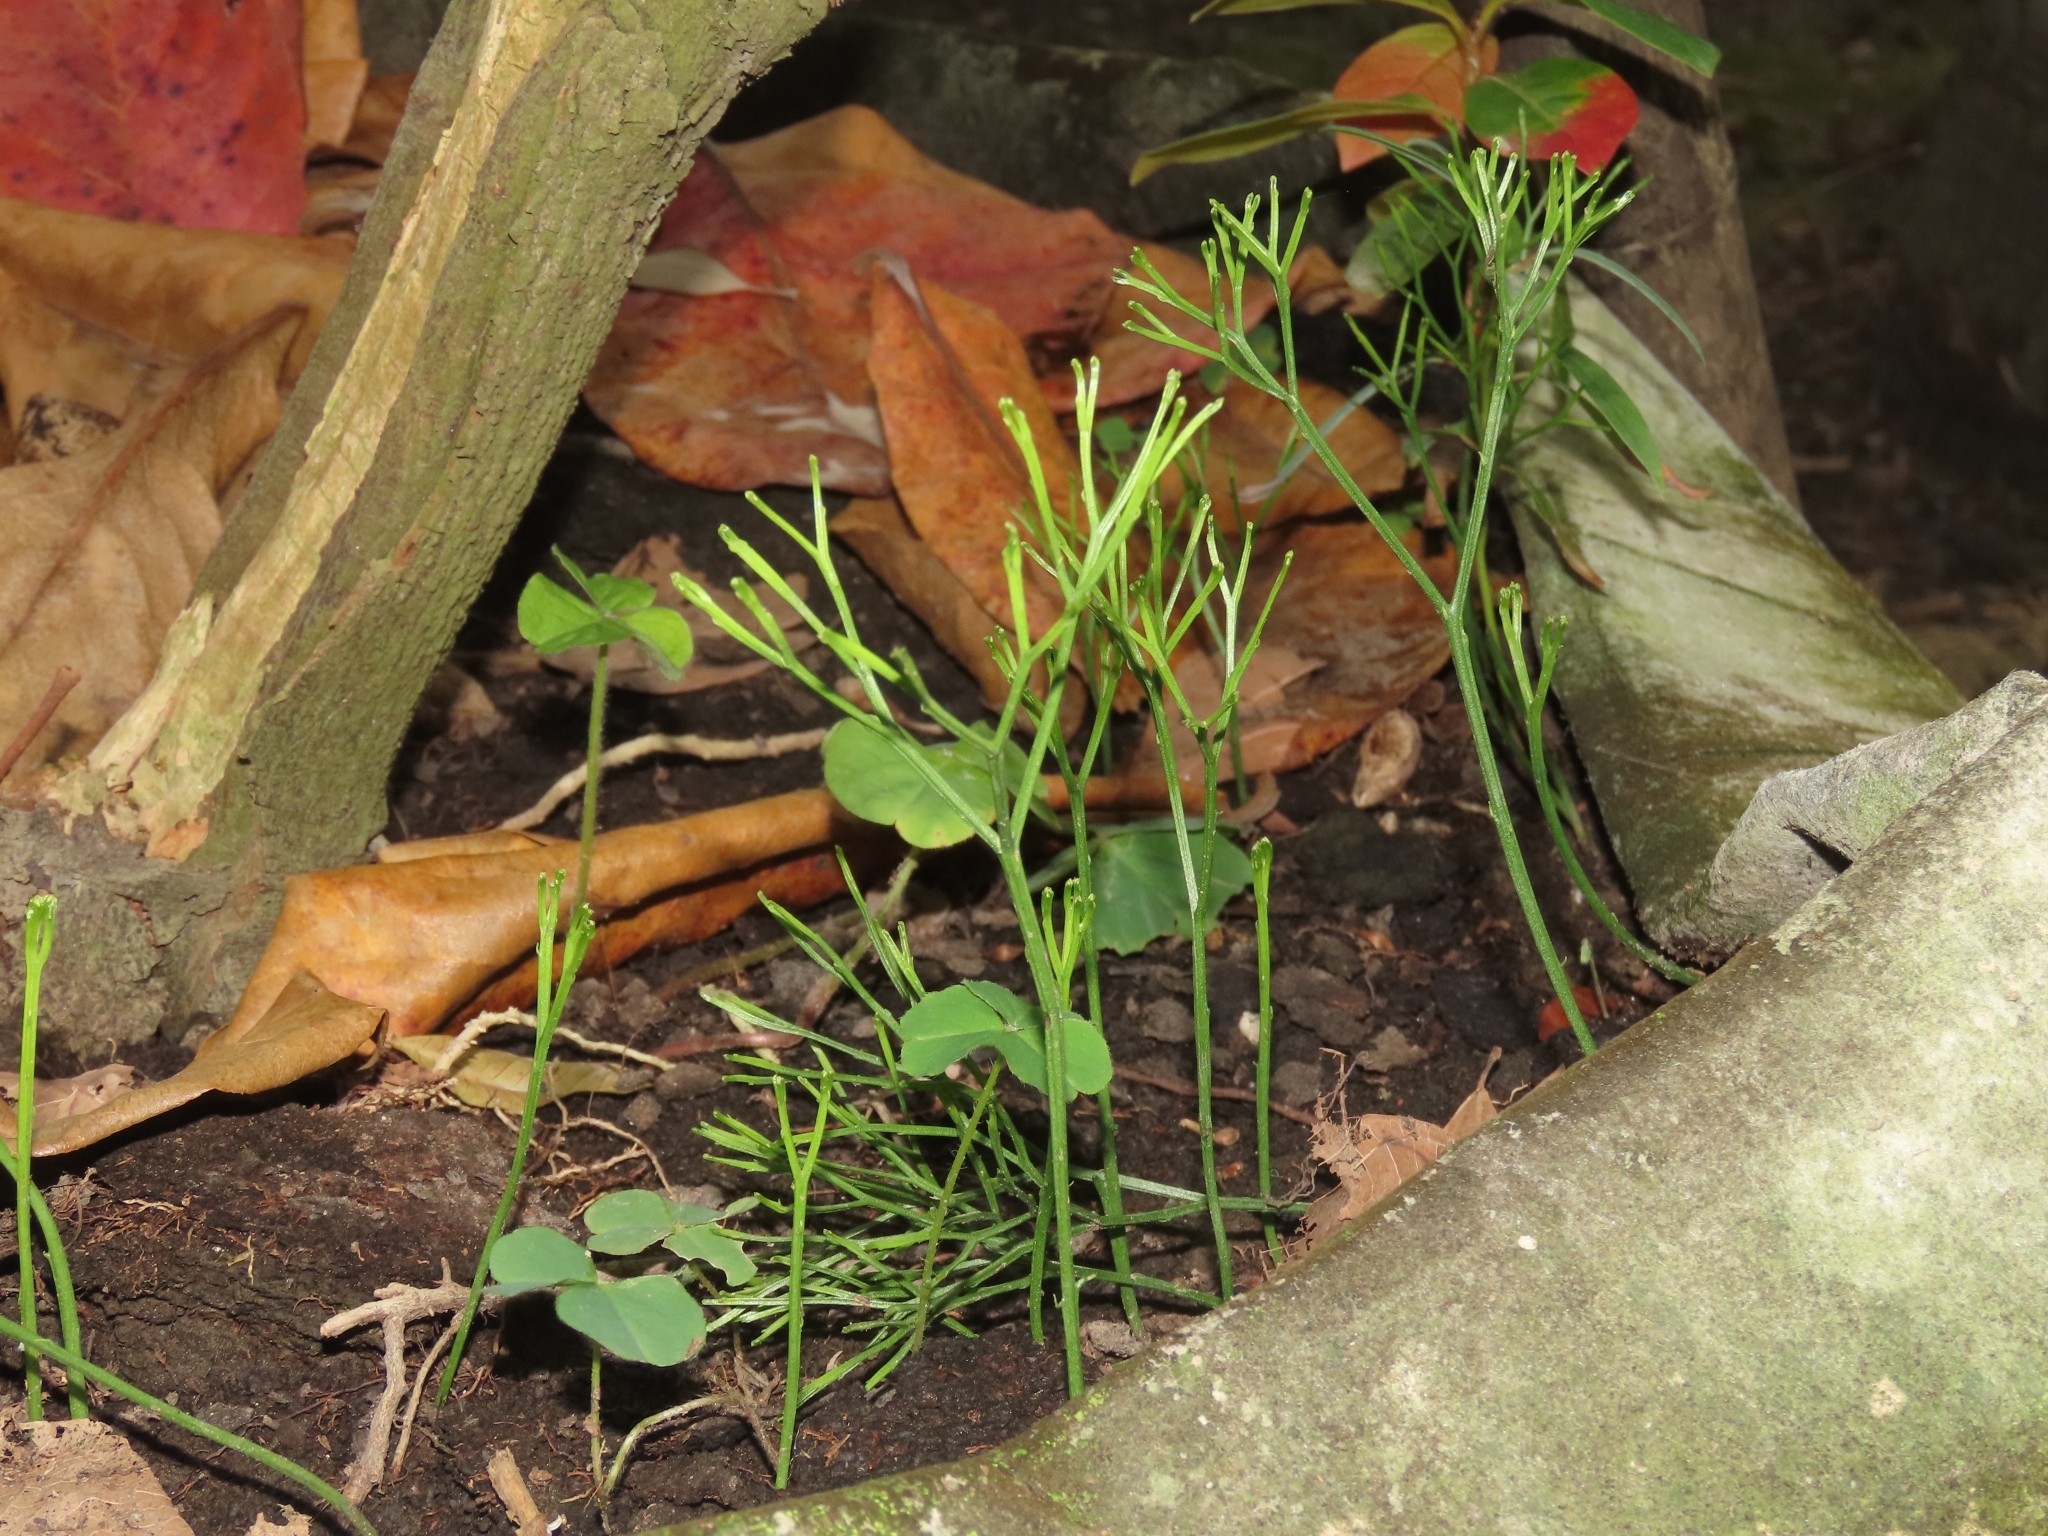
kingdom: Plantae
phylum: Tracheophyta
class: Polypodiopsida
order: Psilotales
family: Psilotaceae
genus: Psilotum
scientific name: Psilotum nudum
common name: Skeleton fork fern
